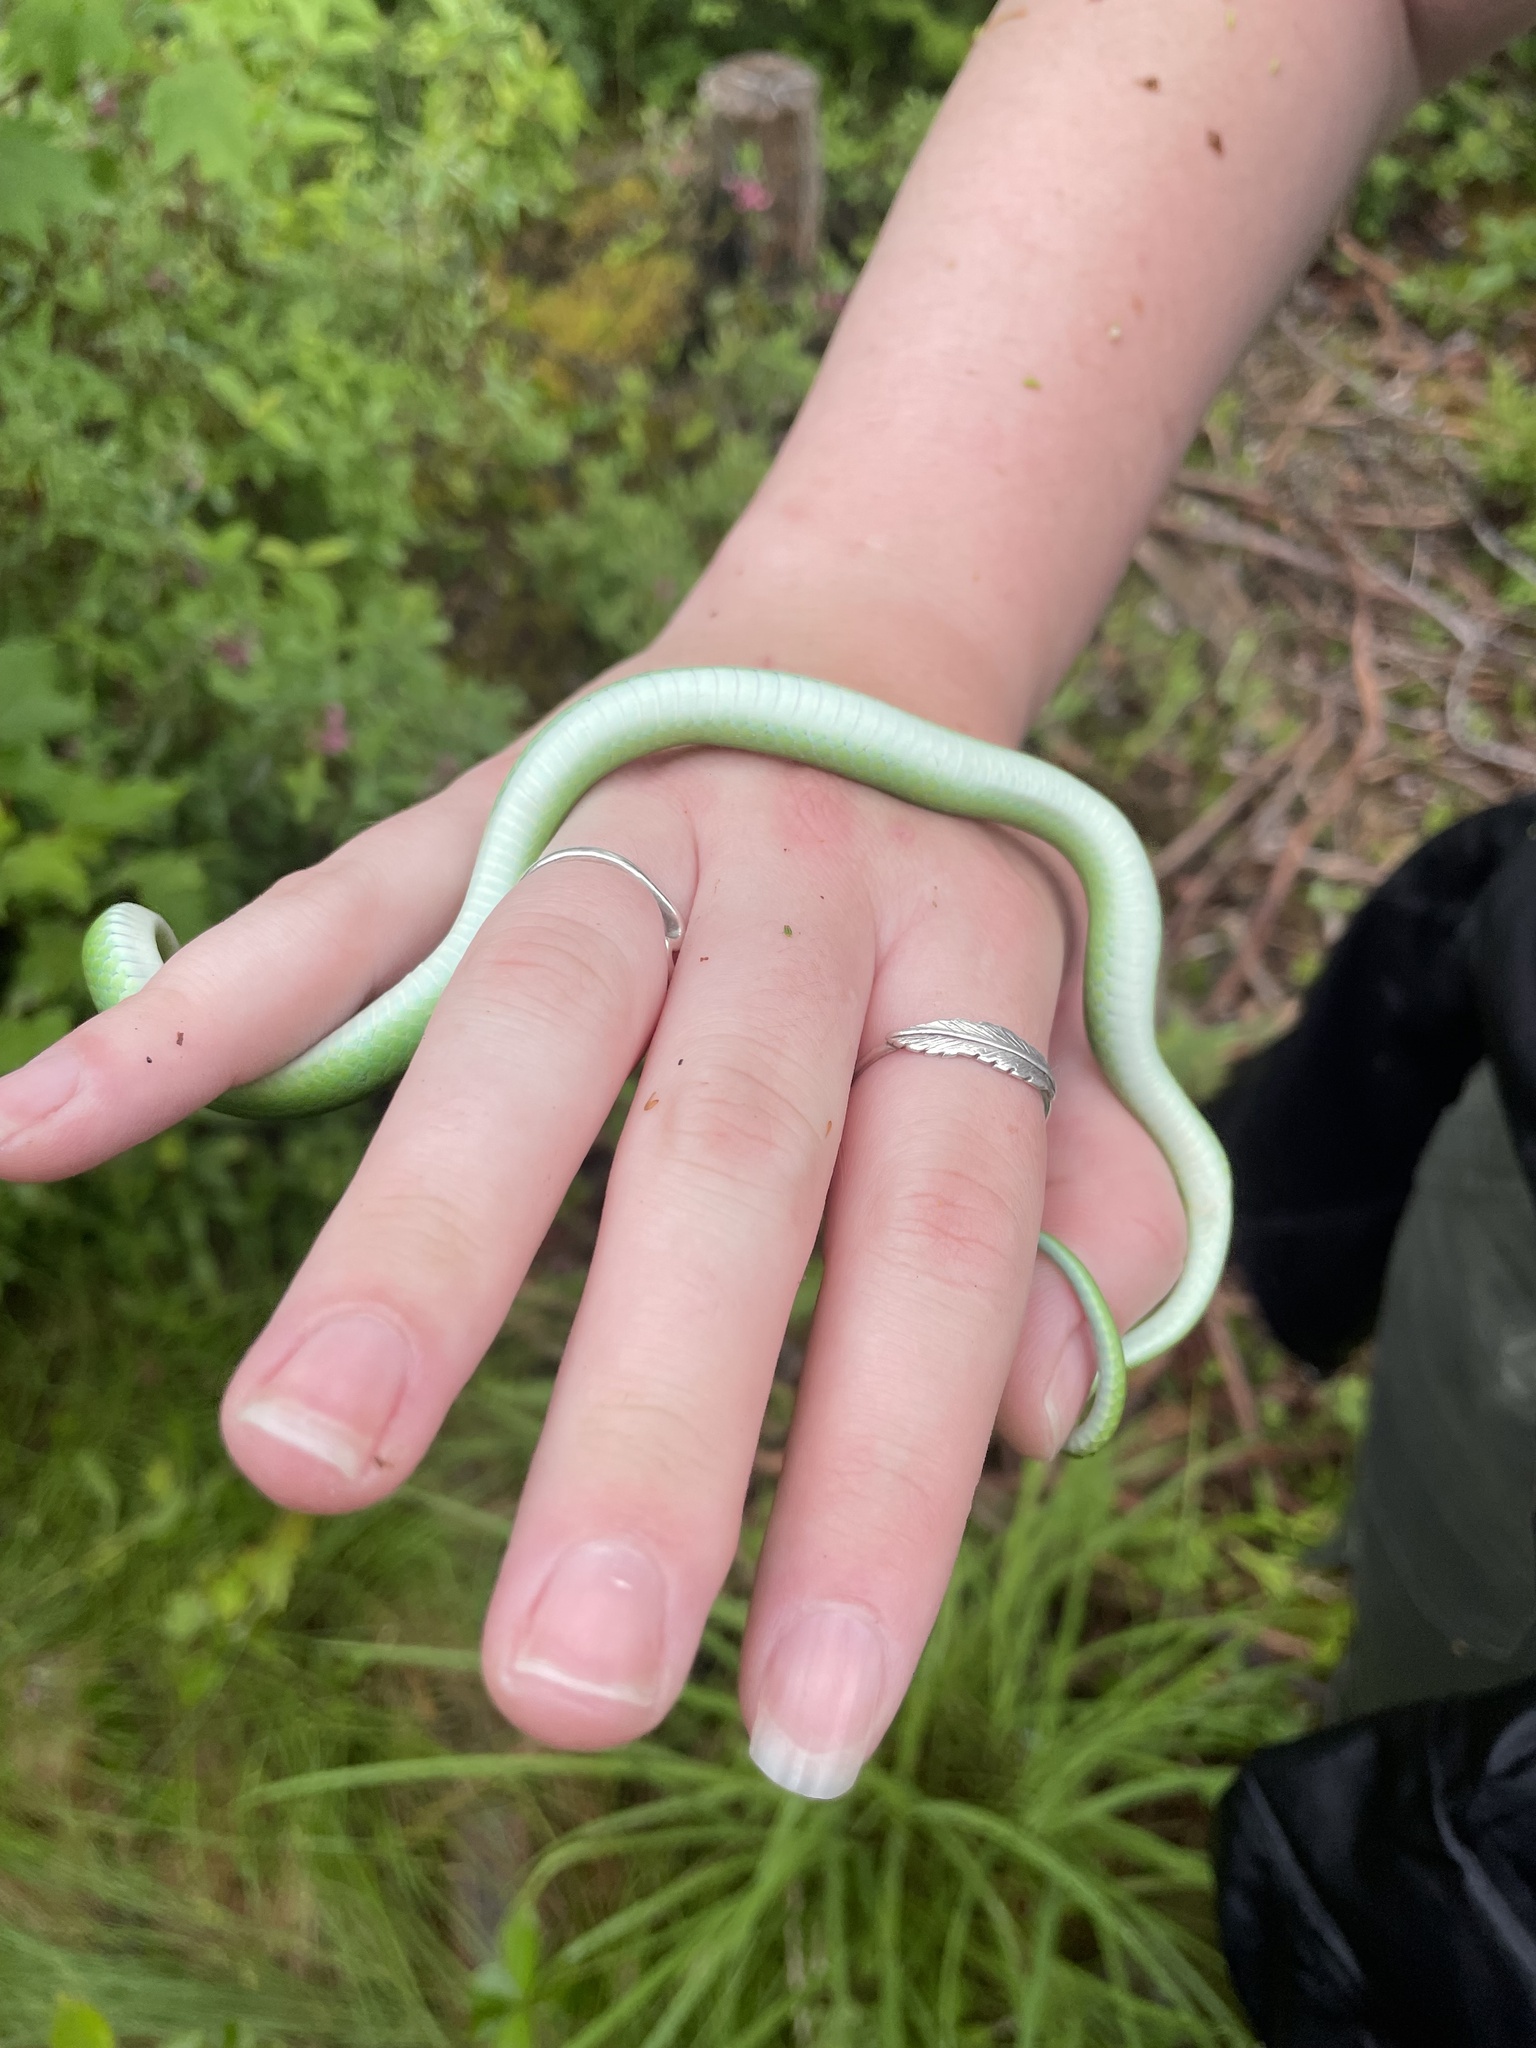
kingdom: Animalia
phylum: Chordata
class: Squamata
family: Colubridae
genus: Opheodrys
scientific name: Opheodrys vernalis
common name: Smooth green snake
